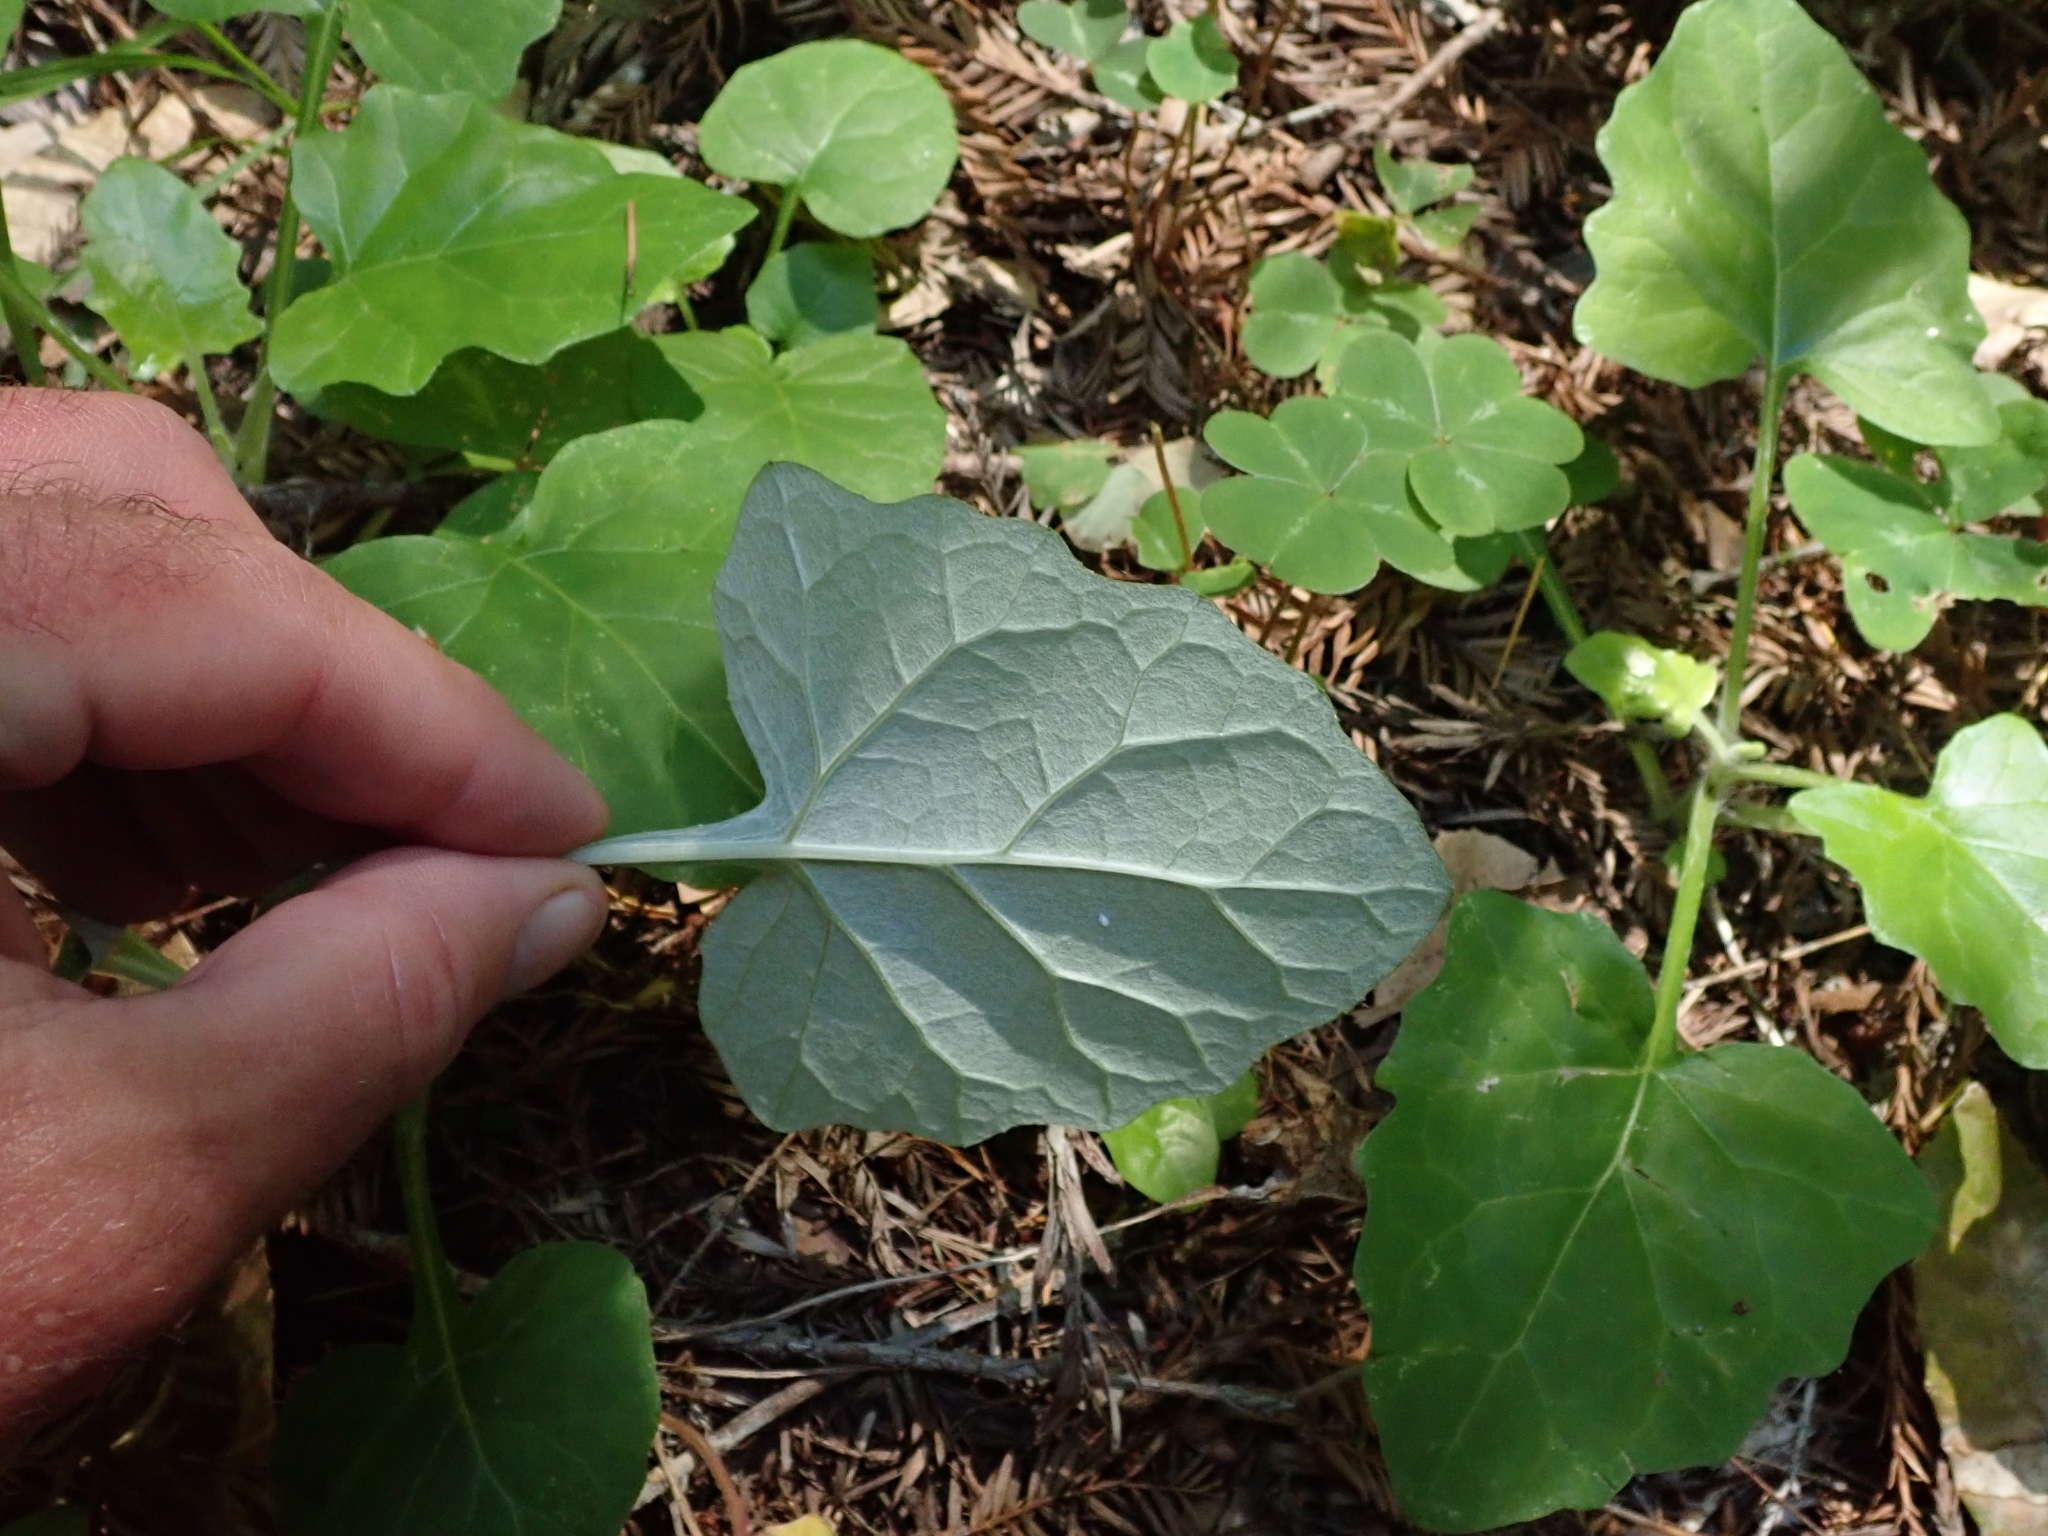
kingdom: Plantae
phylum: Tracheophyta
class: Magnoliopsida
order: Asterales
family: Asteraceae
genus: Adenocaulon
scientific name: Adenocaulon bicolor
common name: Trailplant
